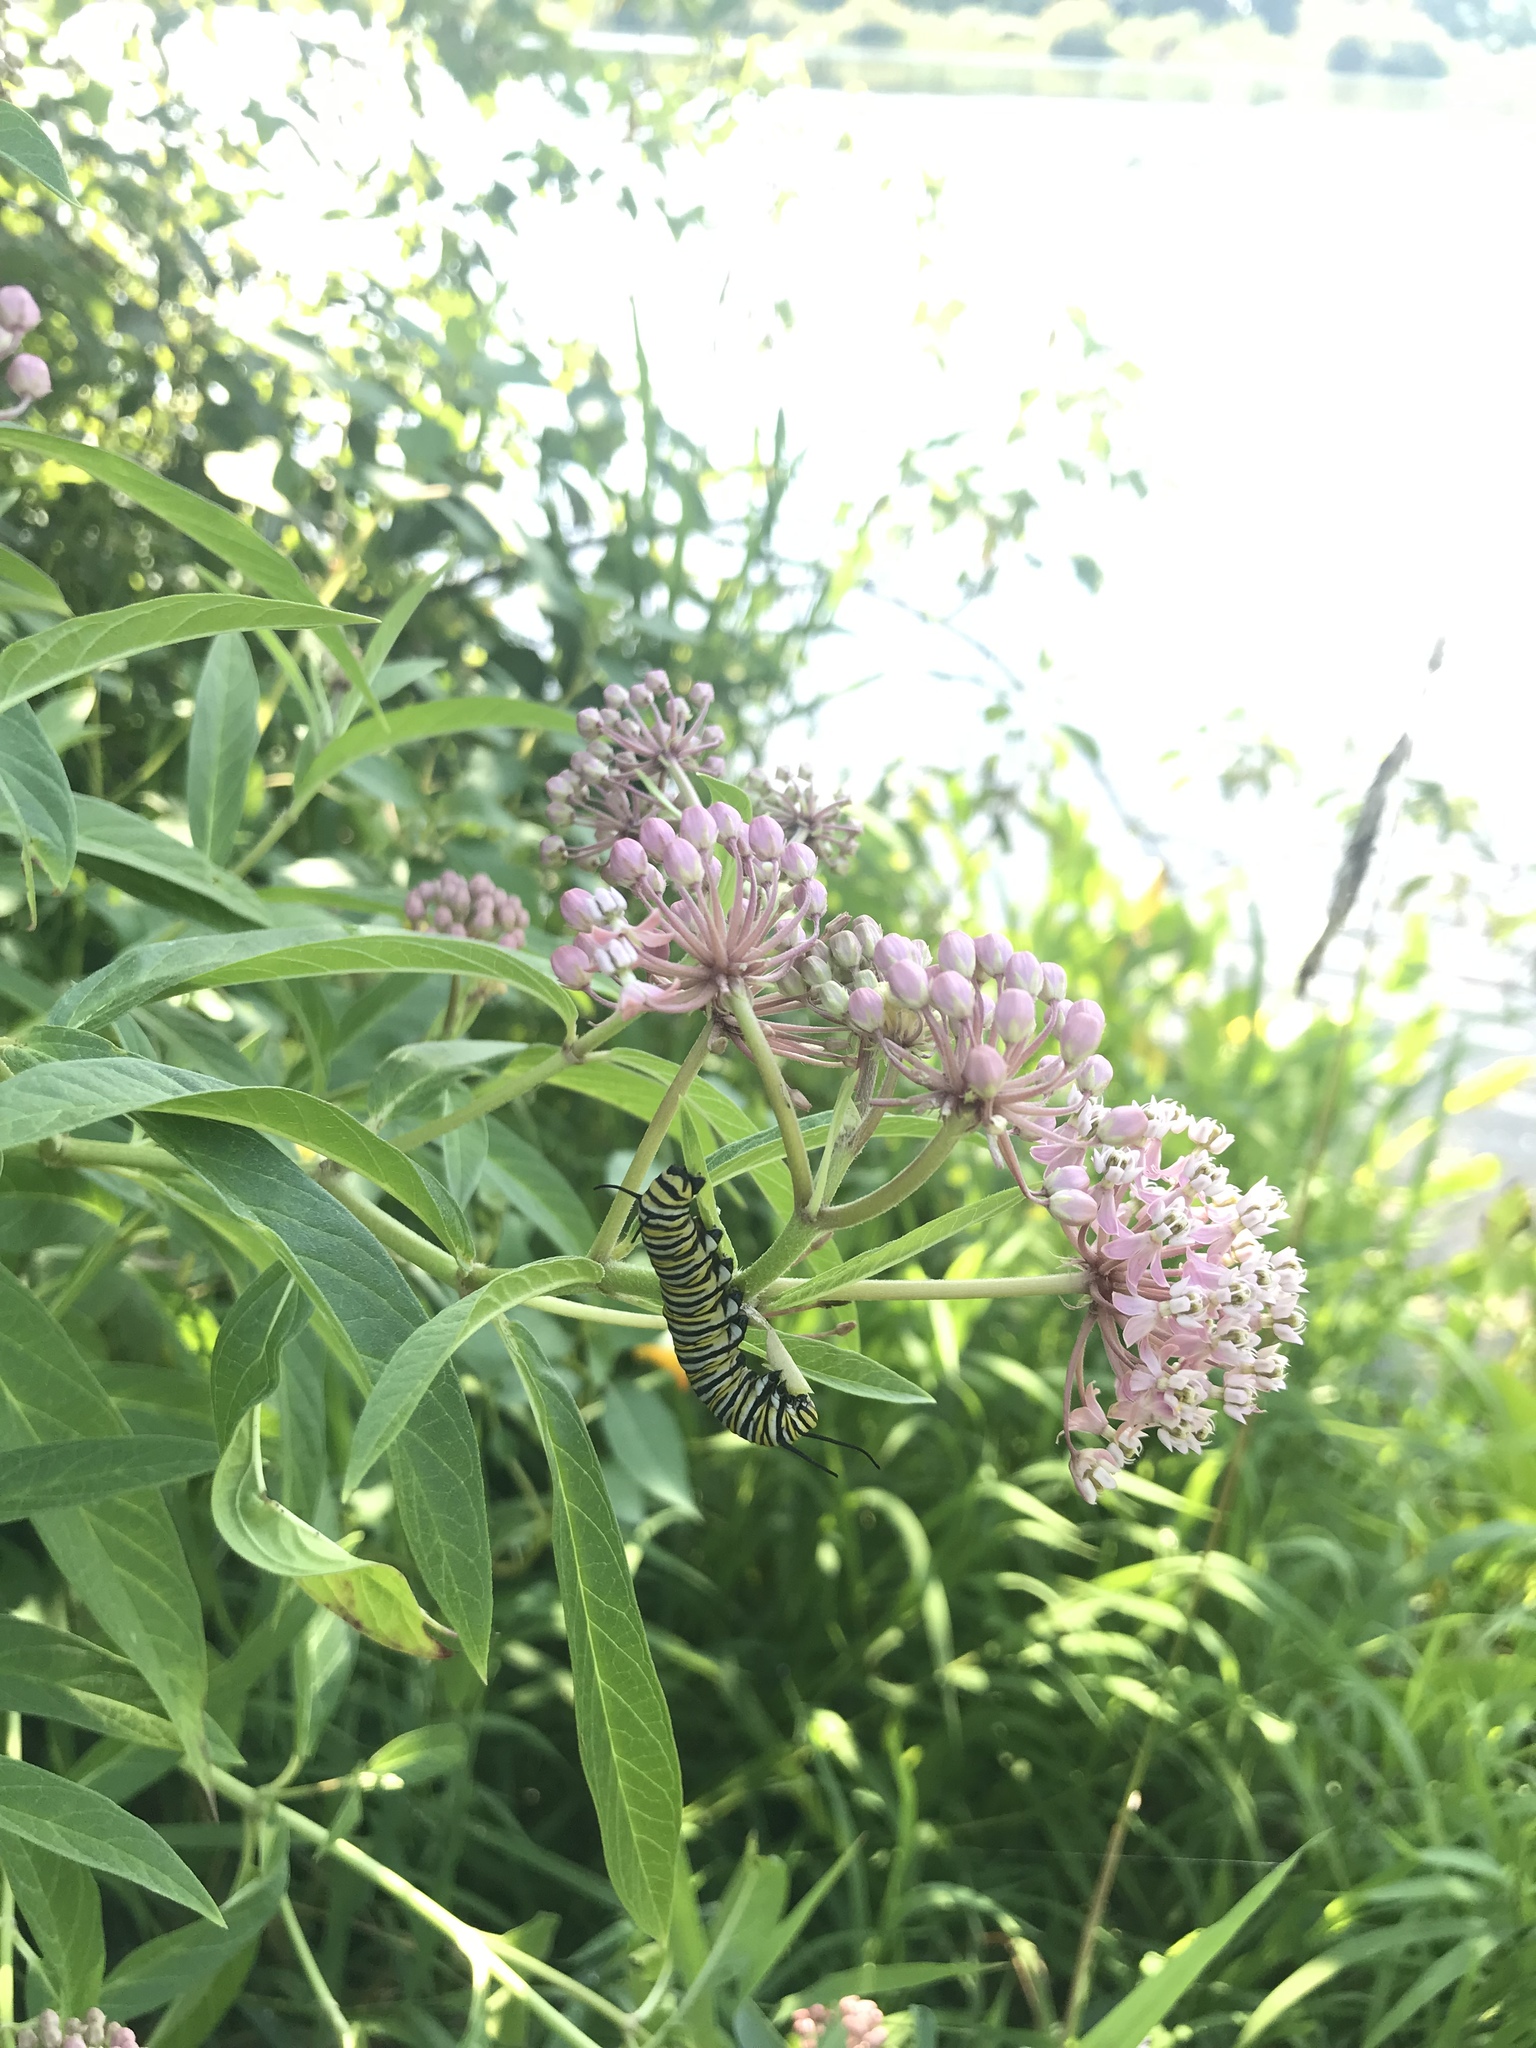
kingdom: Animalia
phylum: Arthropoda
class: Insecta
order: Lepidoptera
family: Nymphalidae
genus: Danaus
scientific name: Danaus plexippus
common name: Monarch
